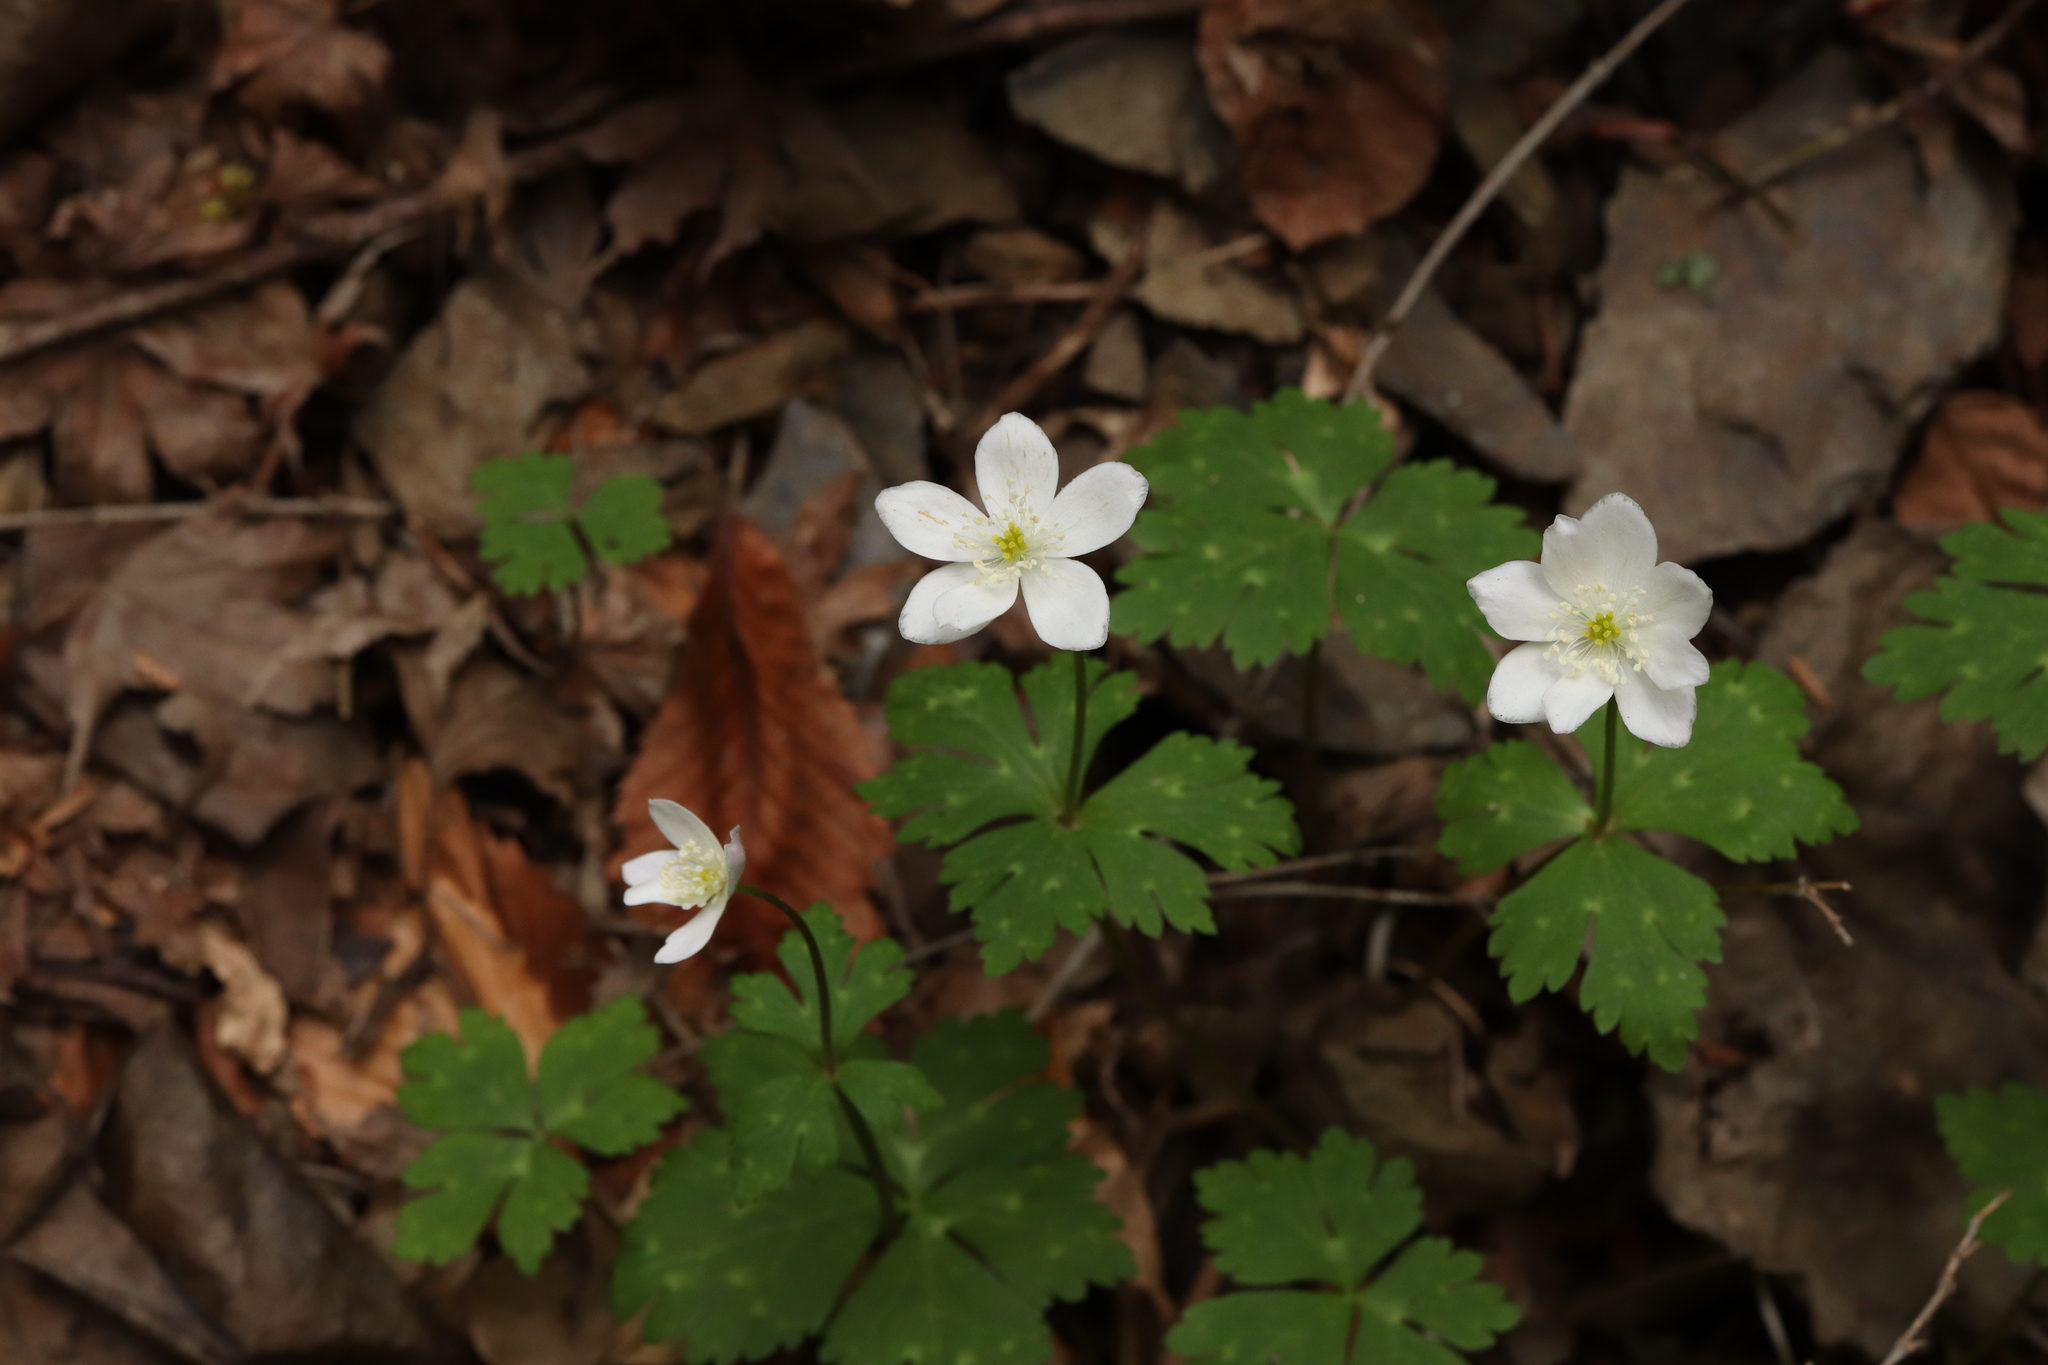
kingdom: Plantae
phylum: Tracheophyta
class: Magnoliopsida
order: Ranunculales
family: Ranunculaceae
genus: Anemonastrum
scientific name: Anemonastrum flaccidum
